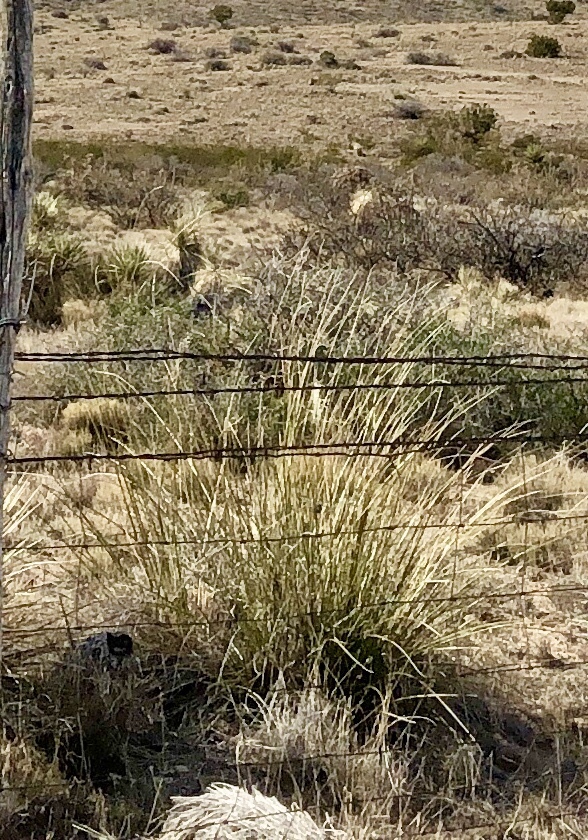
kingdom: Plantae
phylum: Tracheophyta
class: Liliopsida
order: Asparagales
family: Asparagaceae
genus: Nolina
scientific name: Nolina microcarpa
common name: Bear-grass
